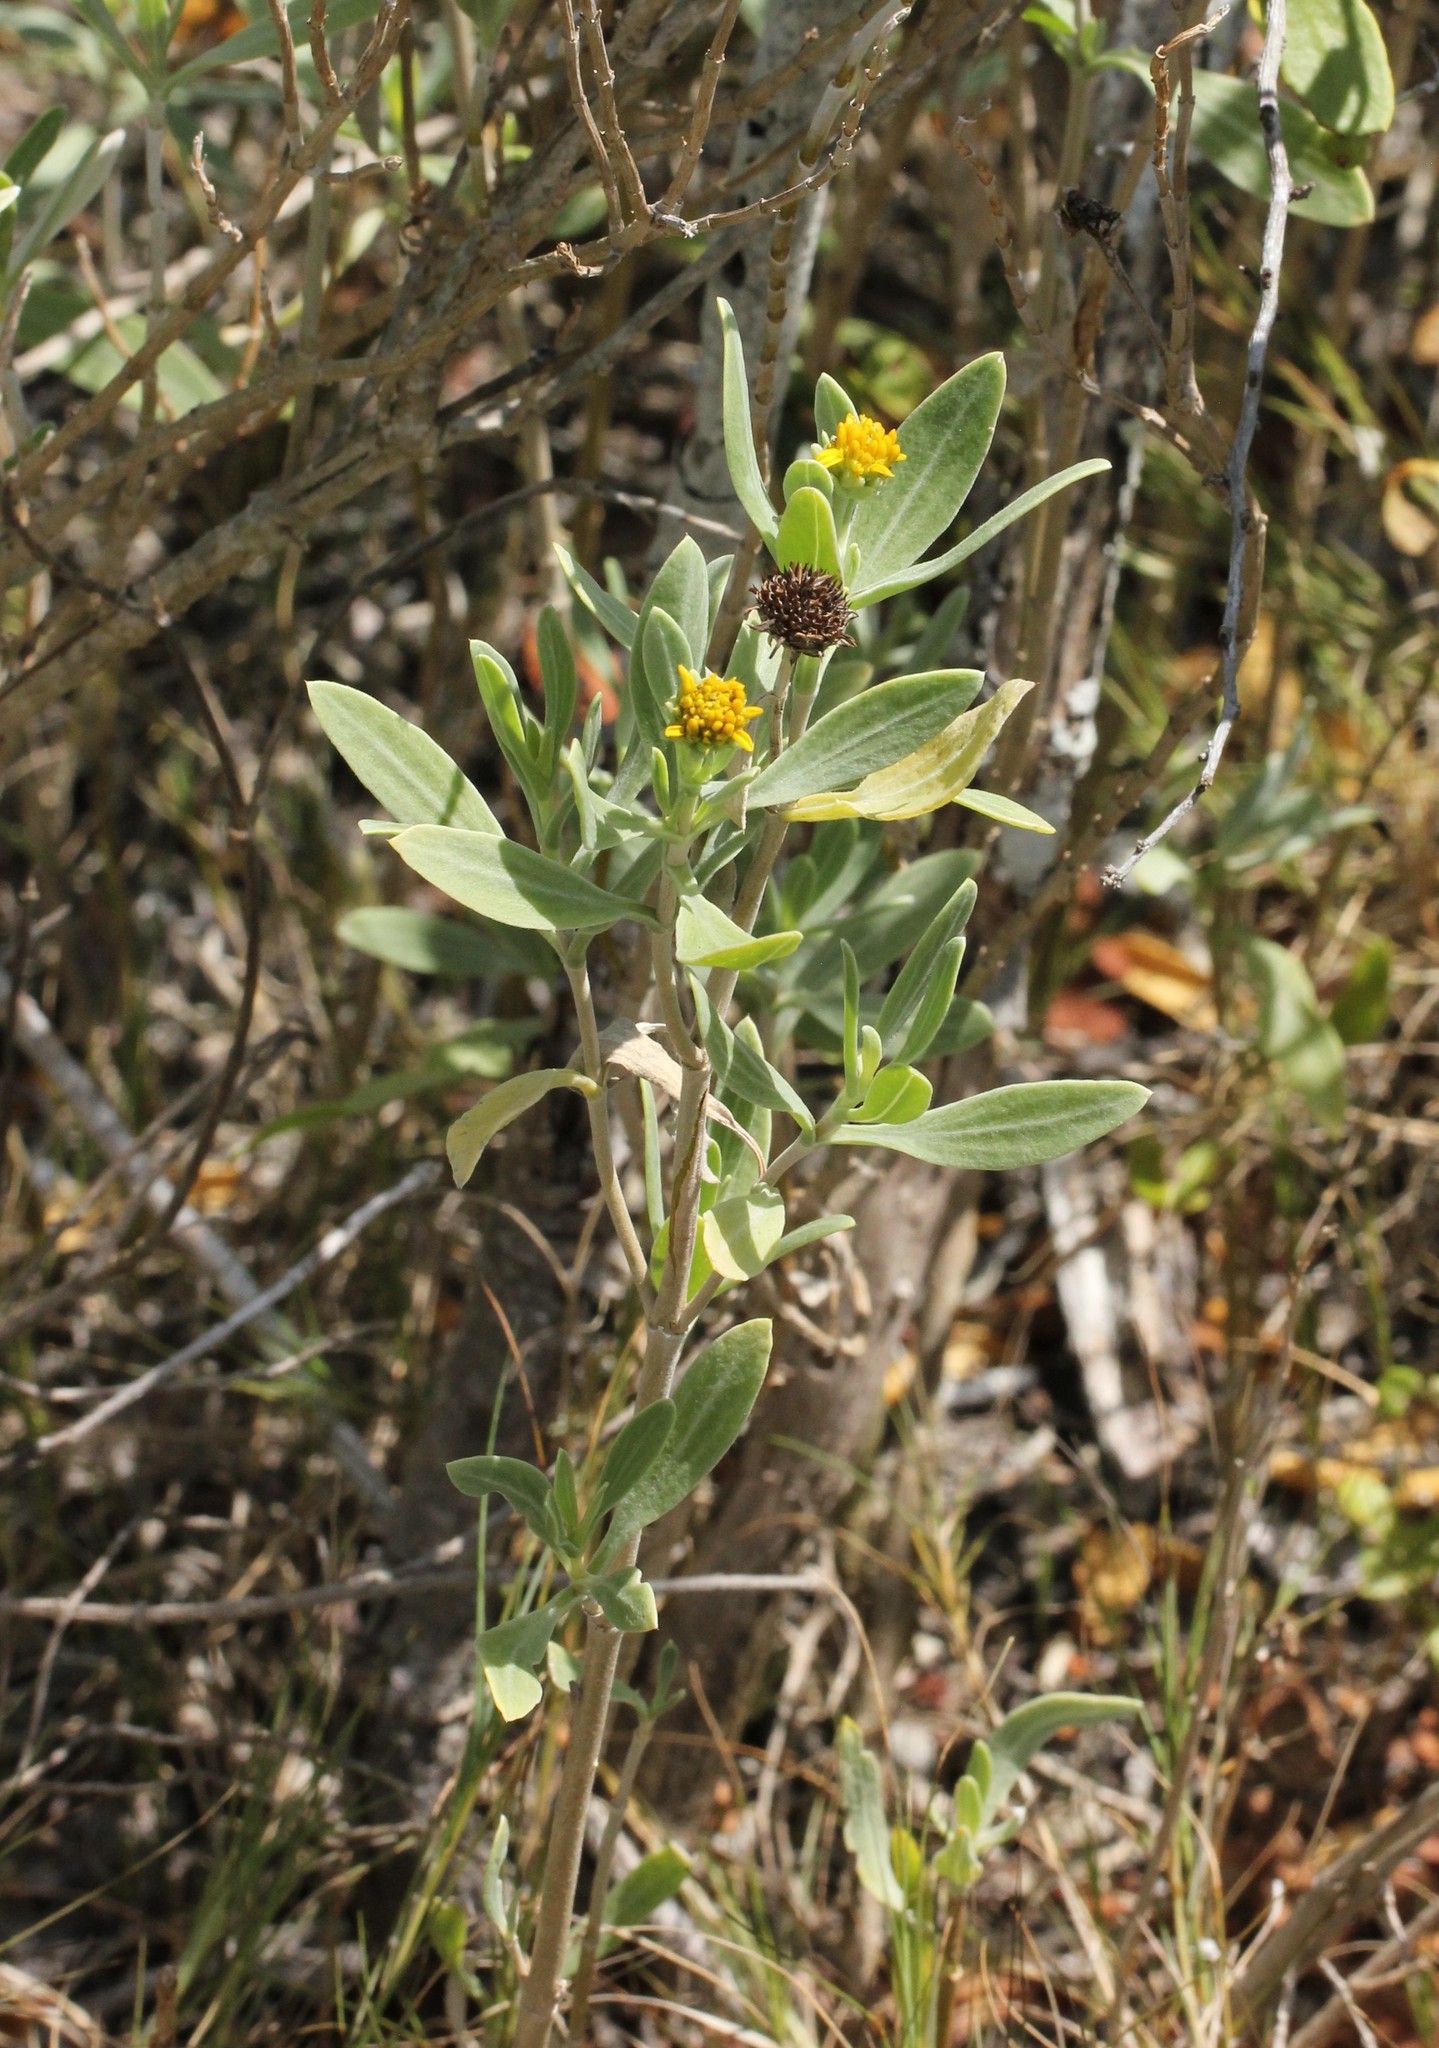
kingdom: Plantae
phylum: Tracheophyta
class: Magnoliopsida
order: Asterales
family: Asteraceae
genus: Borrichia
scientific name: Borrichia frutescens
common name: Sea oxeye
